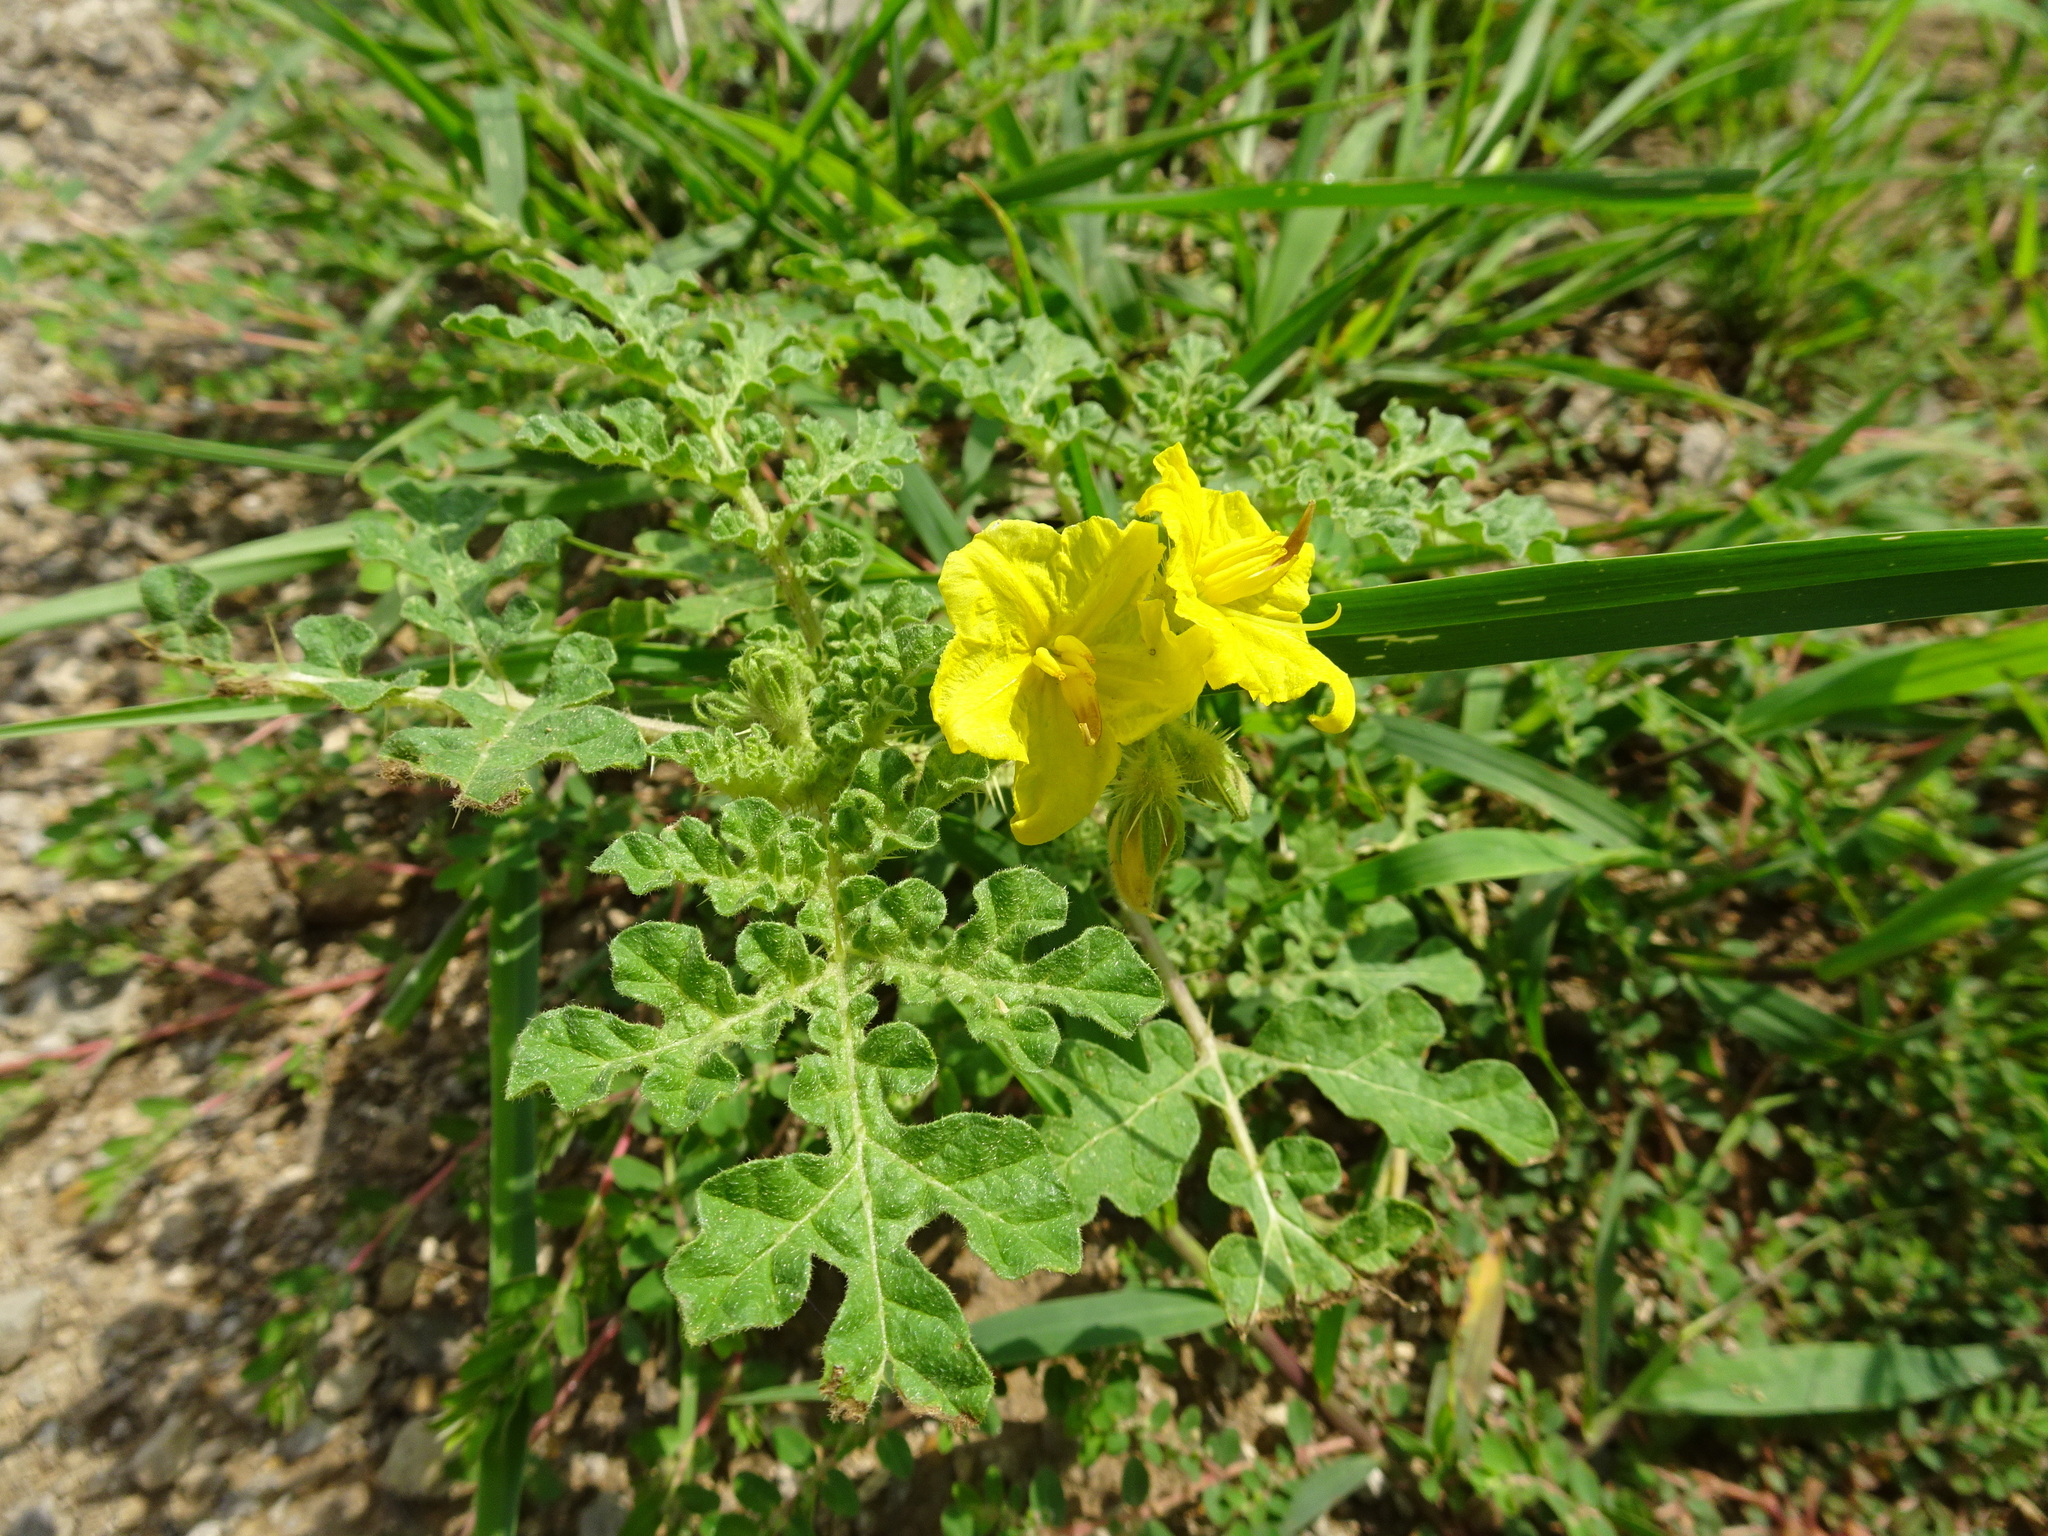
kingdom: Plantae
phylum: Tracheophyta
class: Magnoliopsida
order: Solanales
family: Solanaceae
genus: Solanum
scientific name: Solanum angustifolium
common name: Buffalobur nightshade
